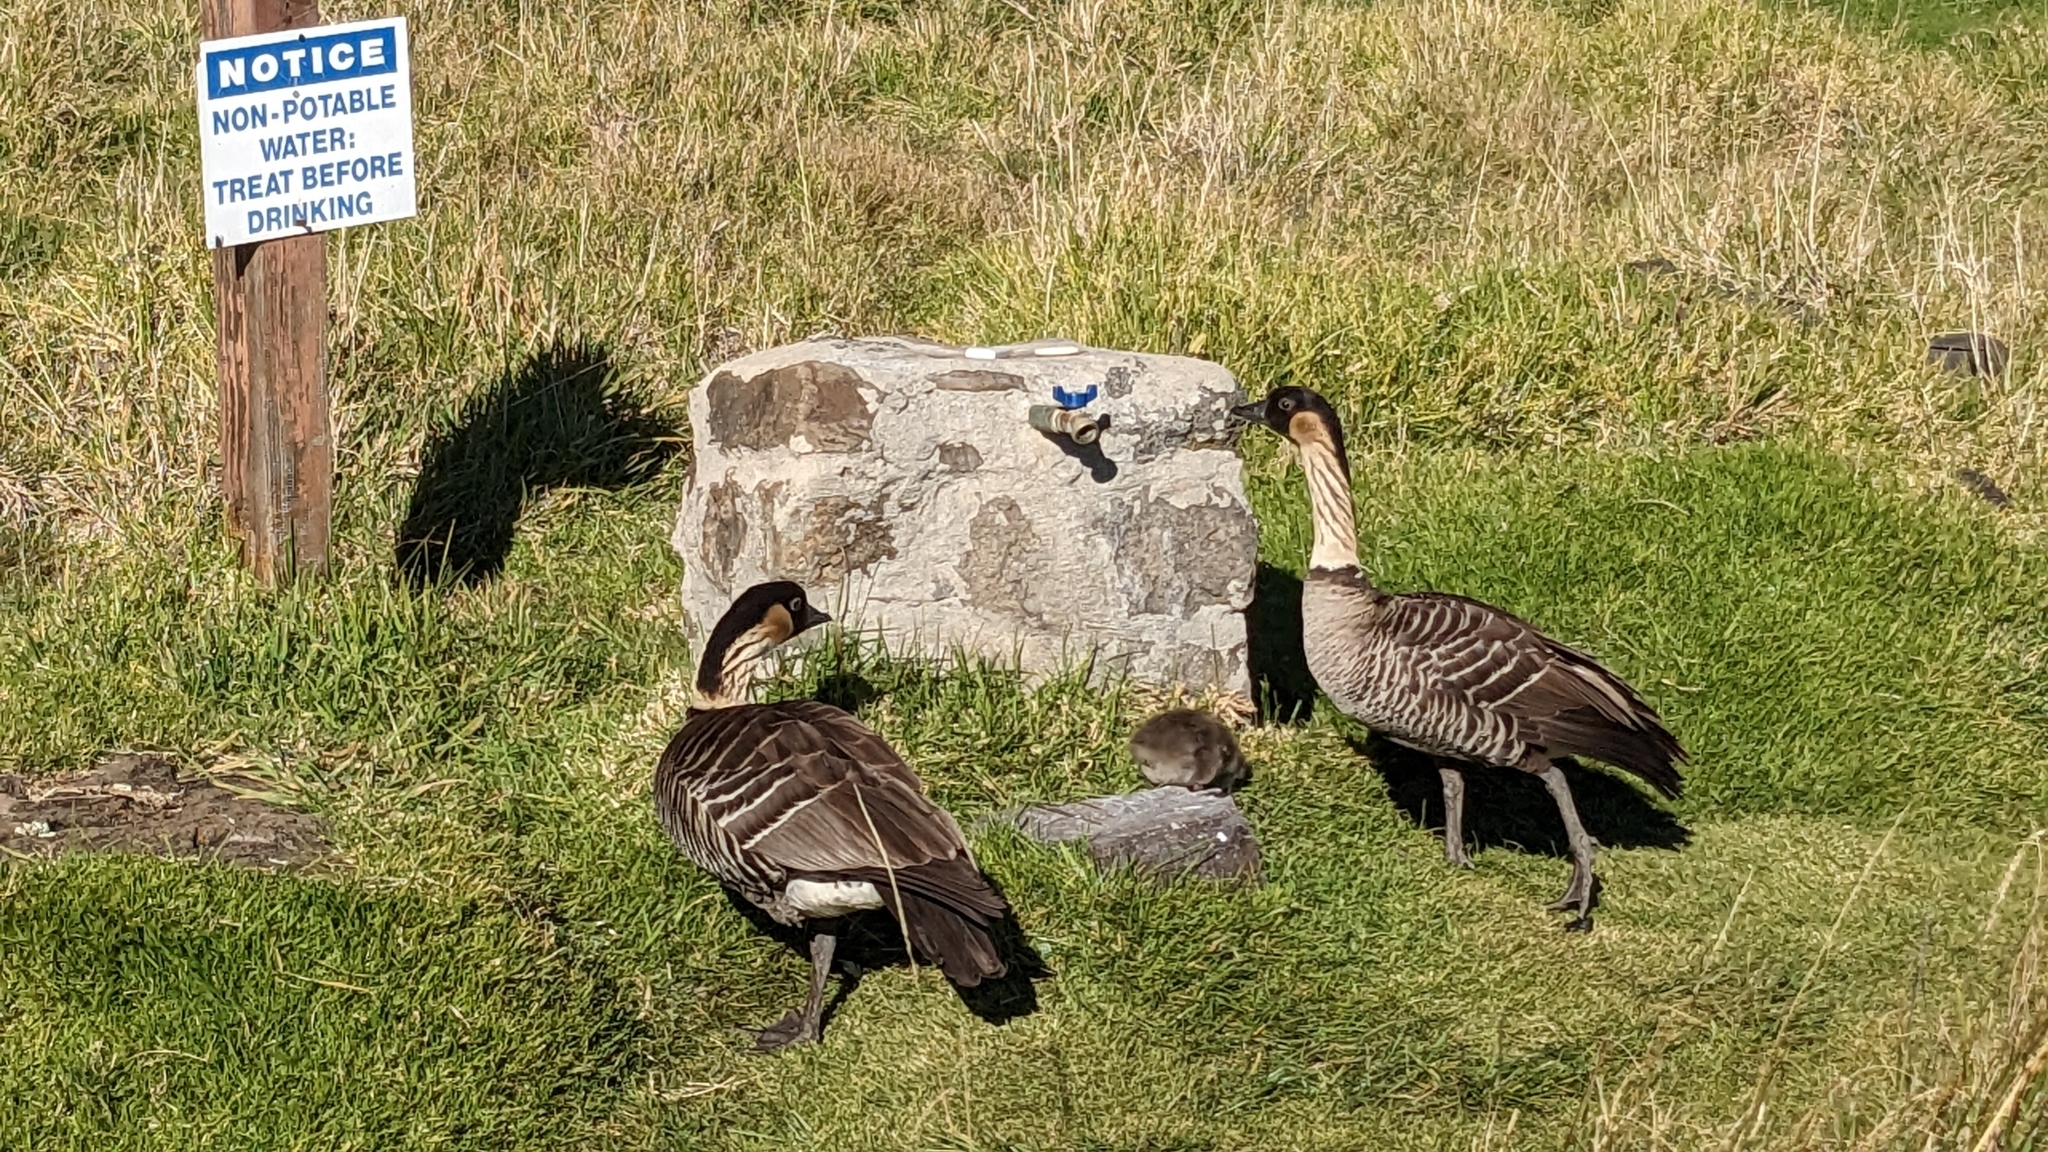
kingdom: Animalia
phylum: Chordata
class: Aves
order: Anseriformes
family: Anatidae
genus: Branta
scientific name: Branta sandvicensis
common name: Nene
